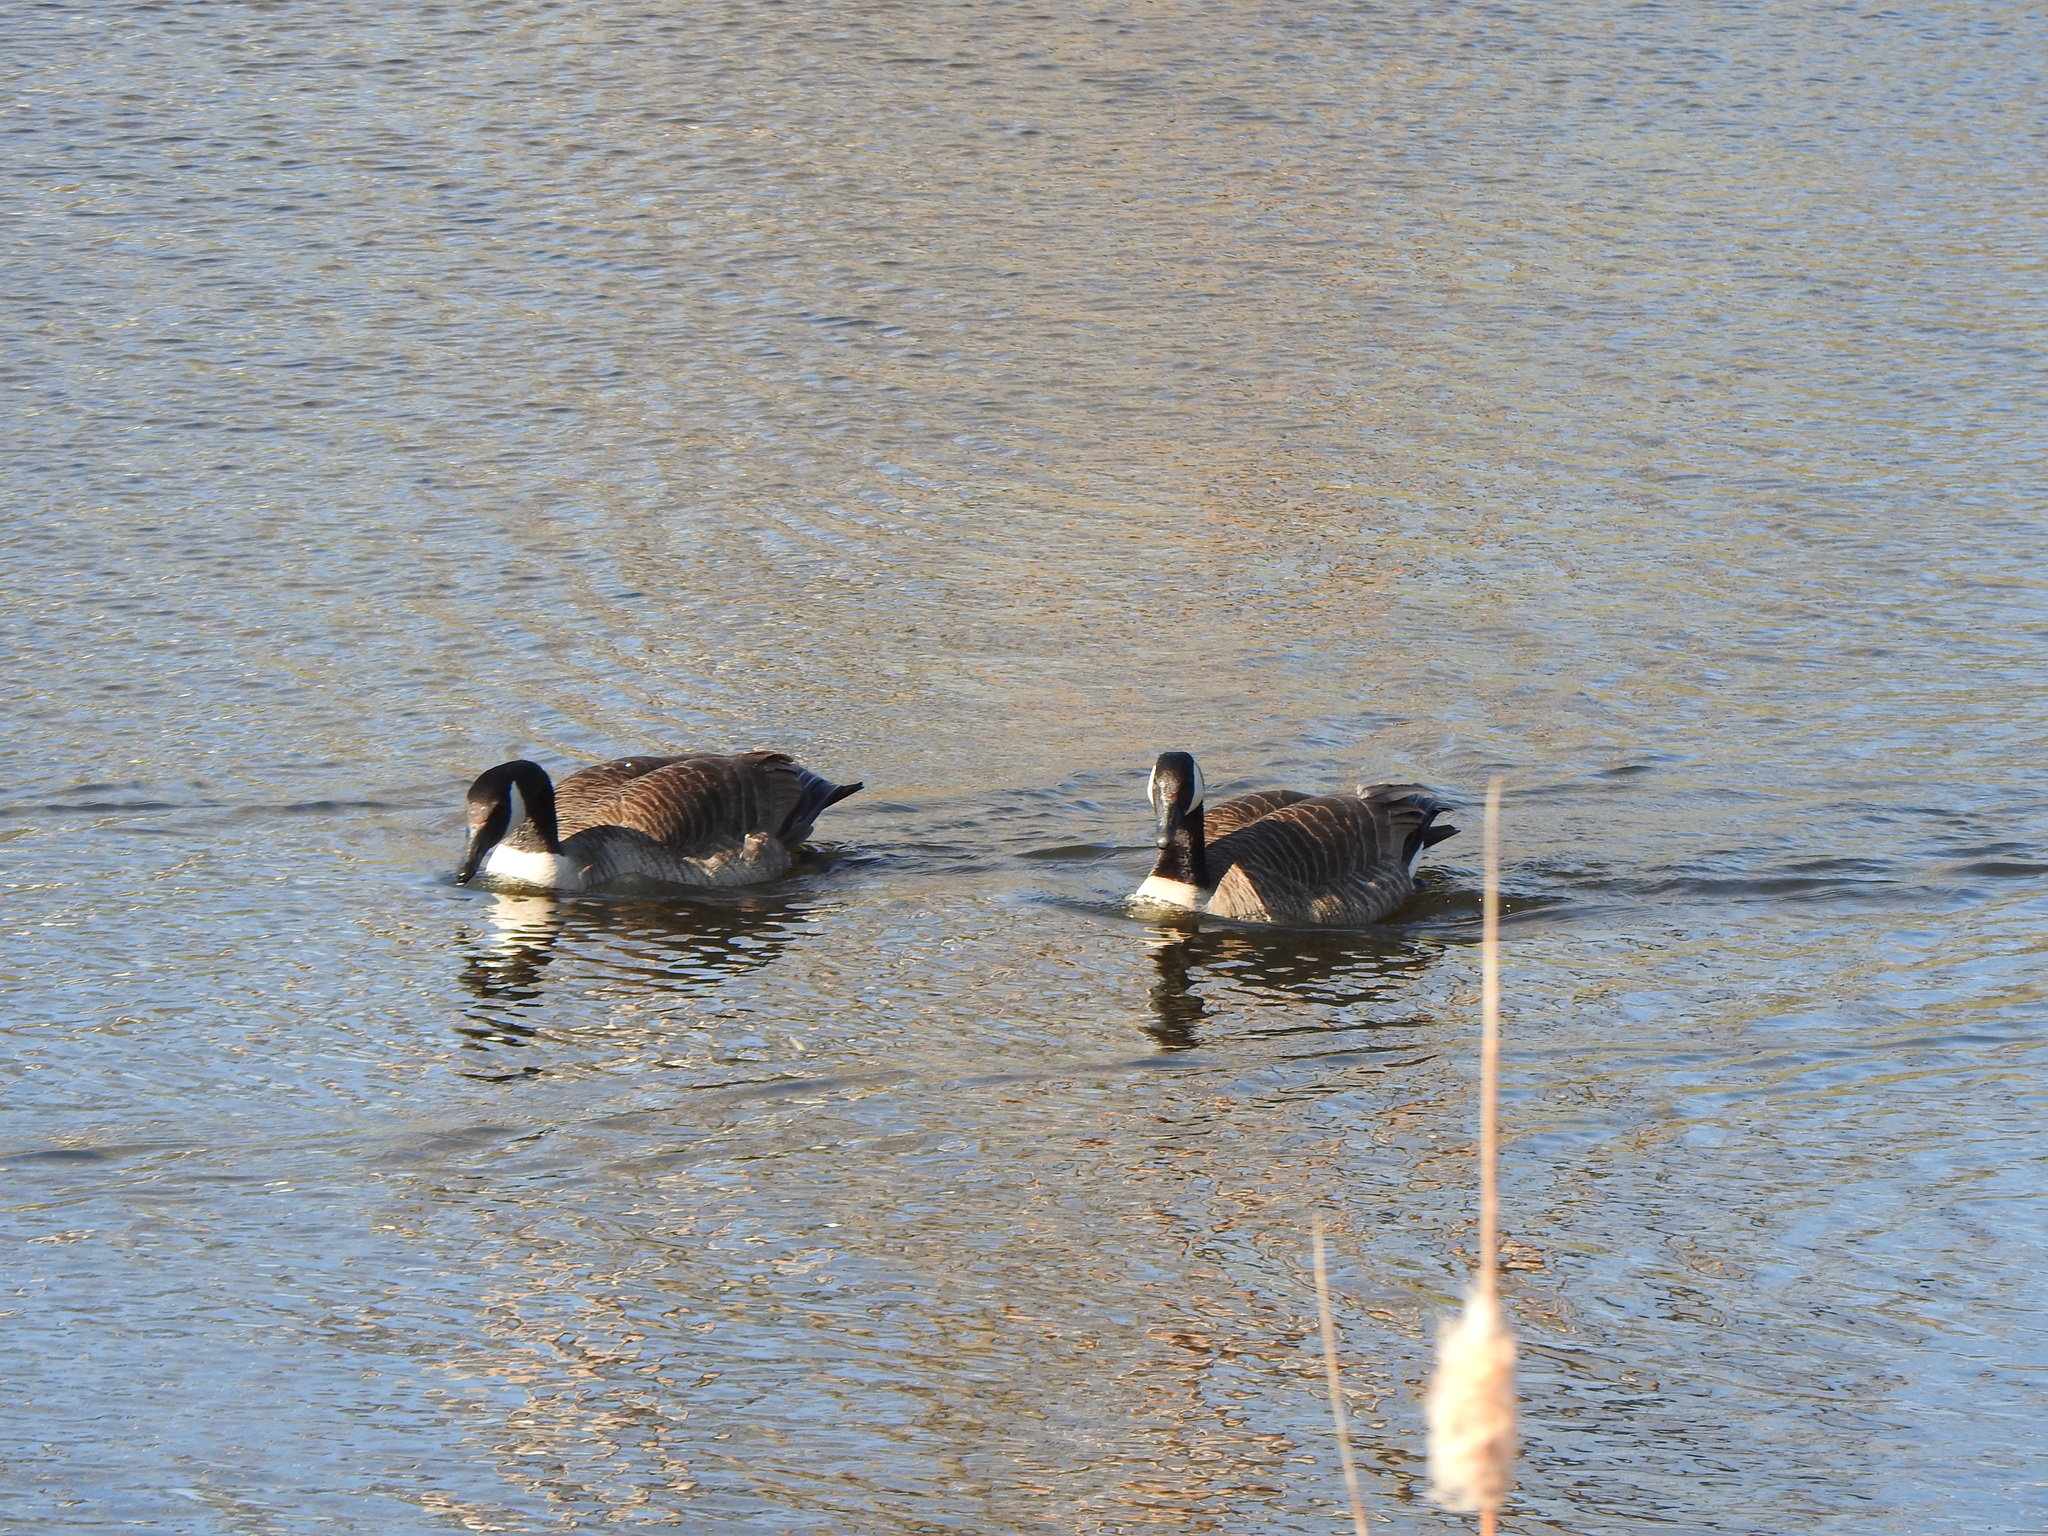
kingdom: Animalia
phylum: Chordata
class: Aves
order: Anseriformes
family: Anatidae
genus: Branta
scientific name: Branta canadensis
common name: Canada goose
